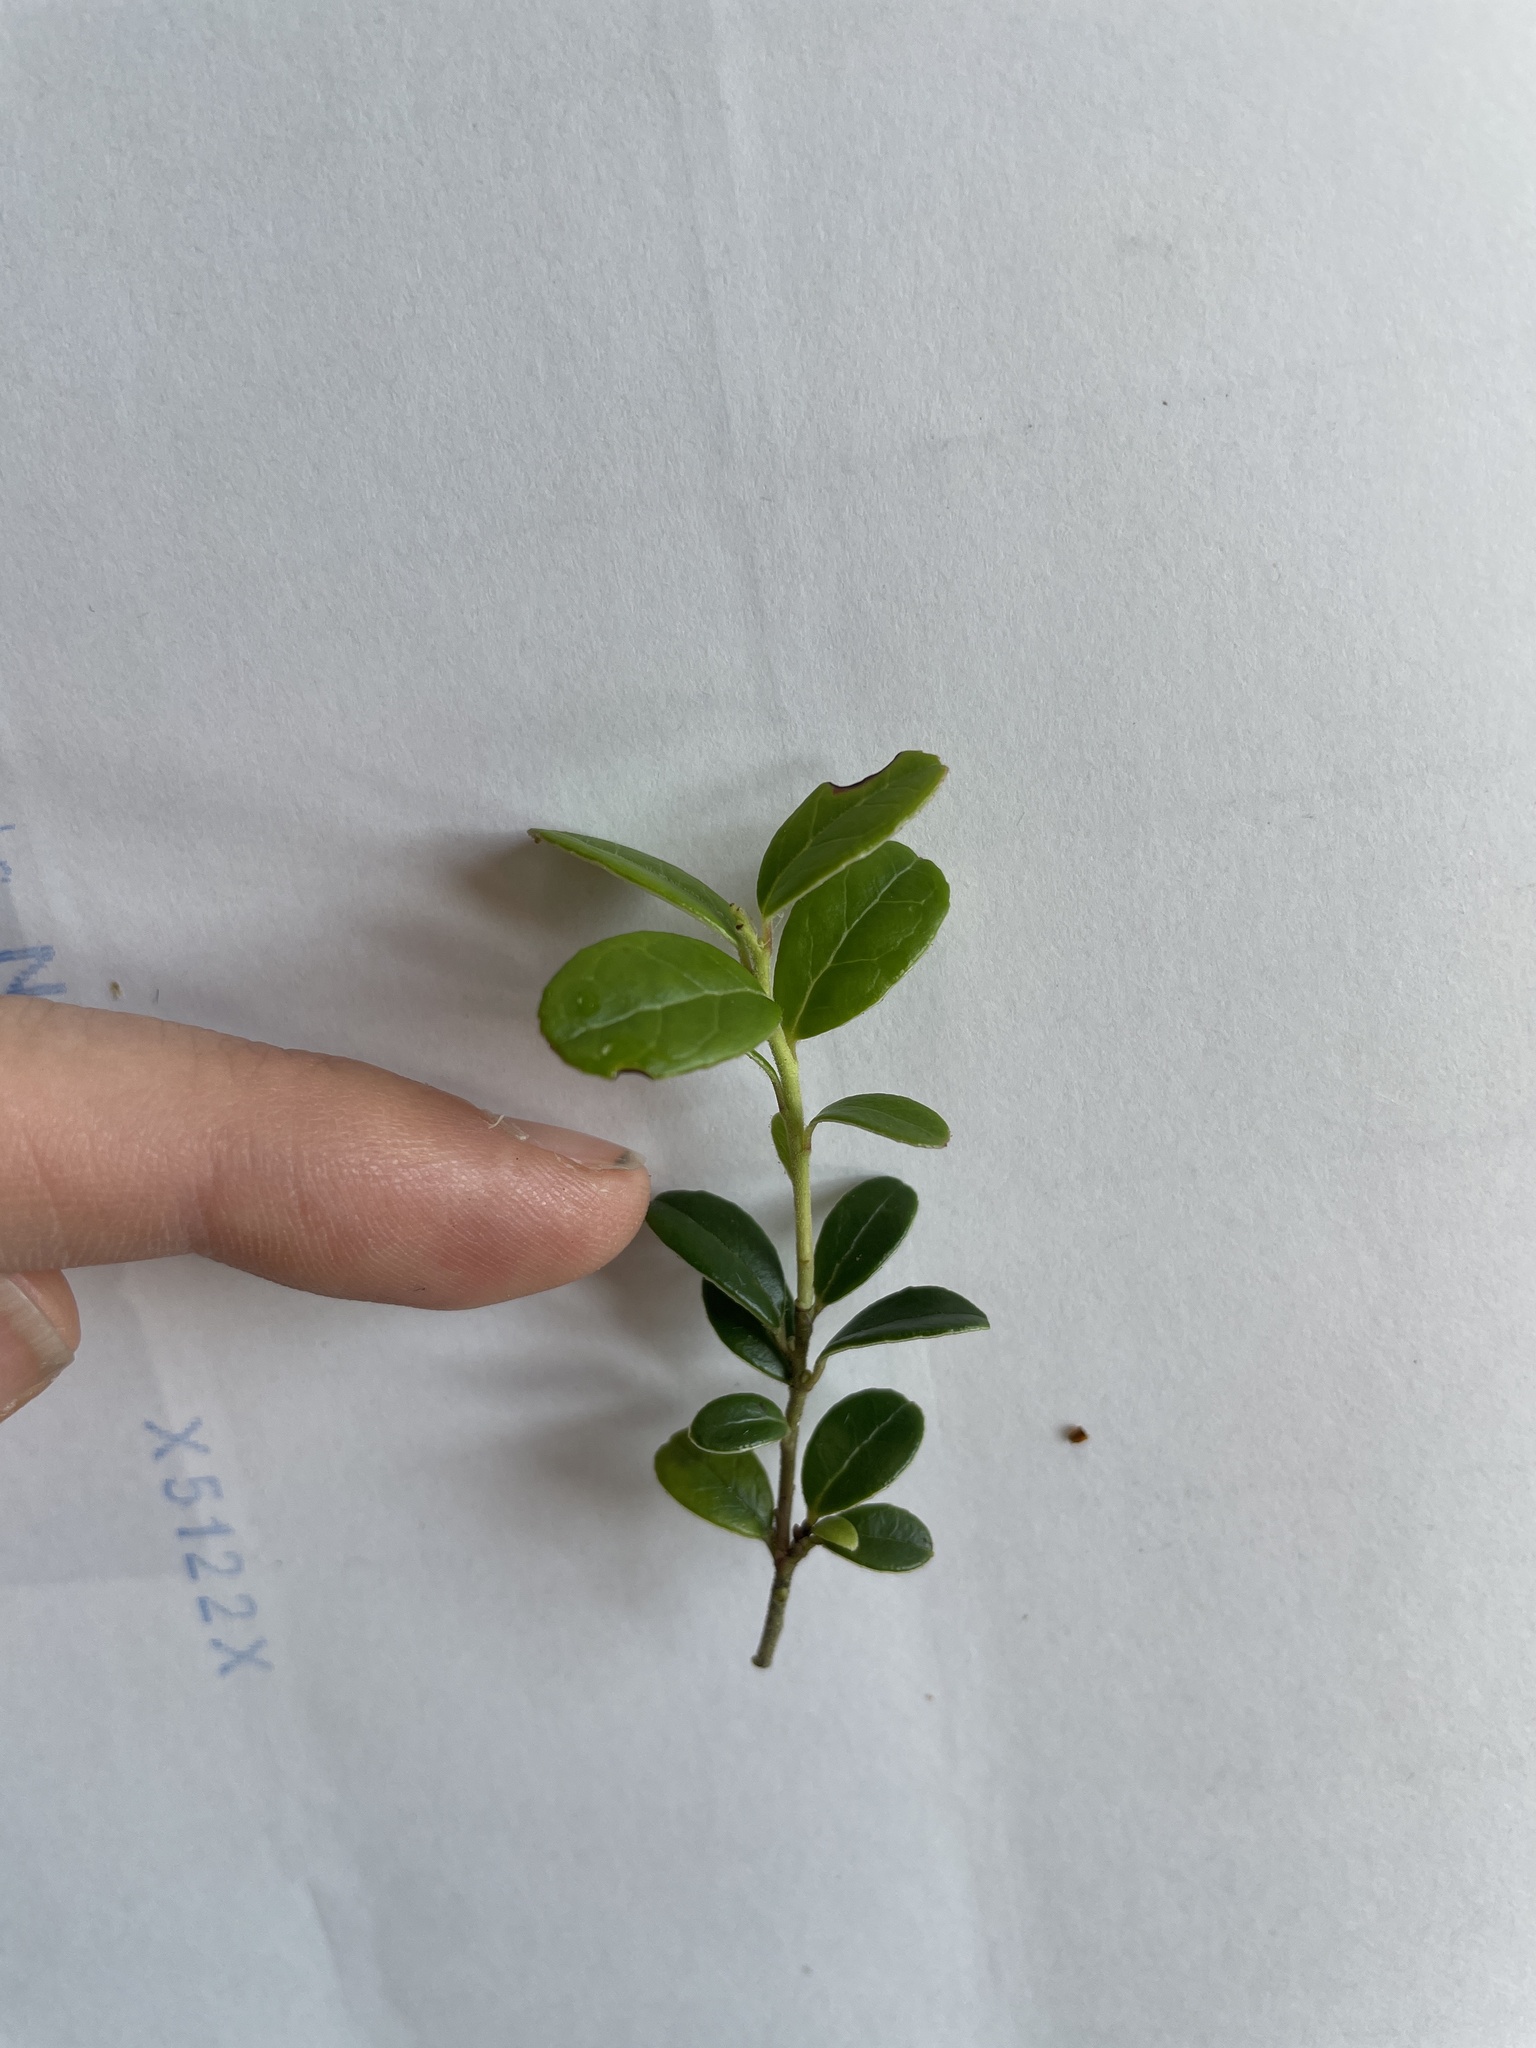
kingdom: Plantae
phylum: Tracheophyta
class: Magnoliopsida
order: Ericales
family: Ericaceae
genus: Vaccinium
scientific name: Vaccinium vitis-idaea
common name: Cowberry
